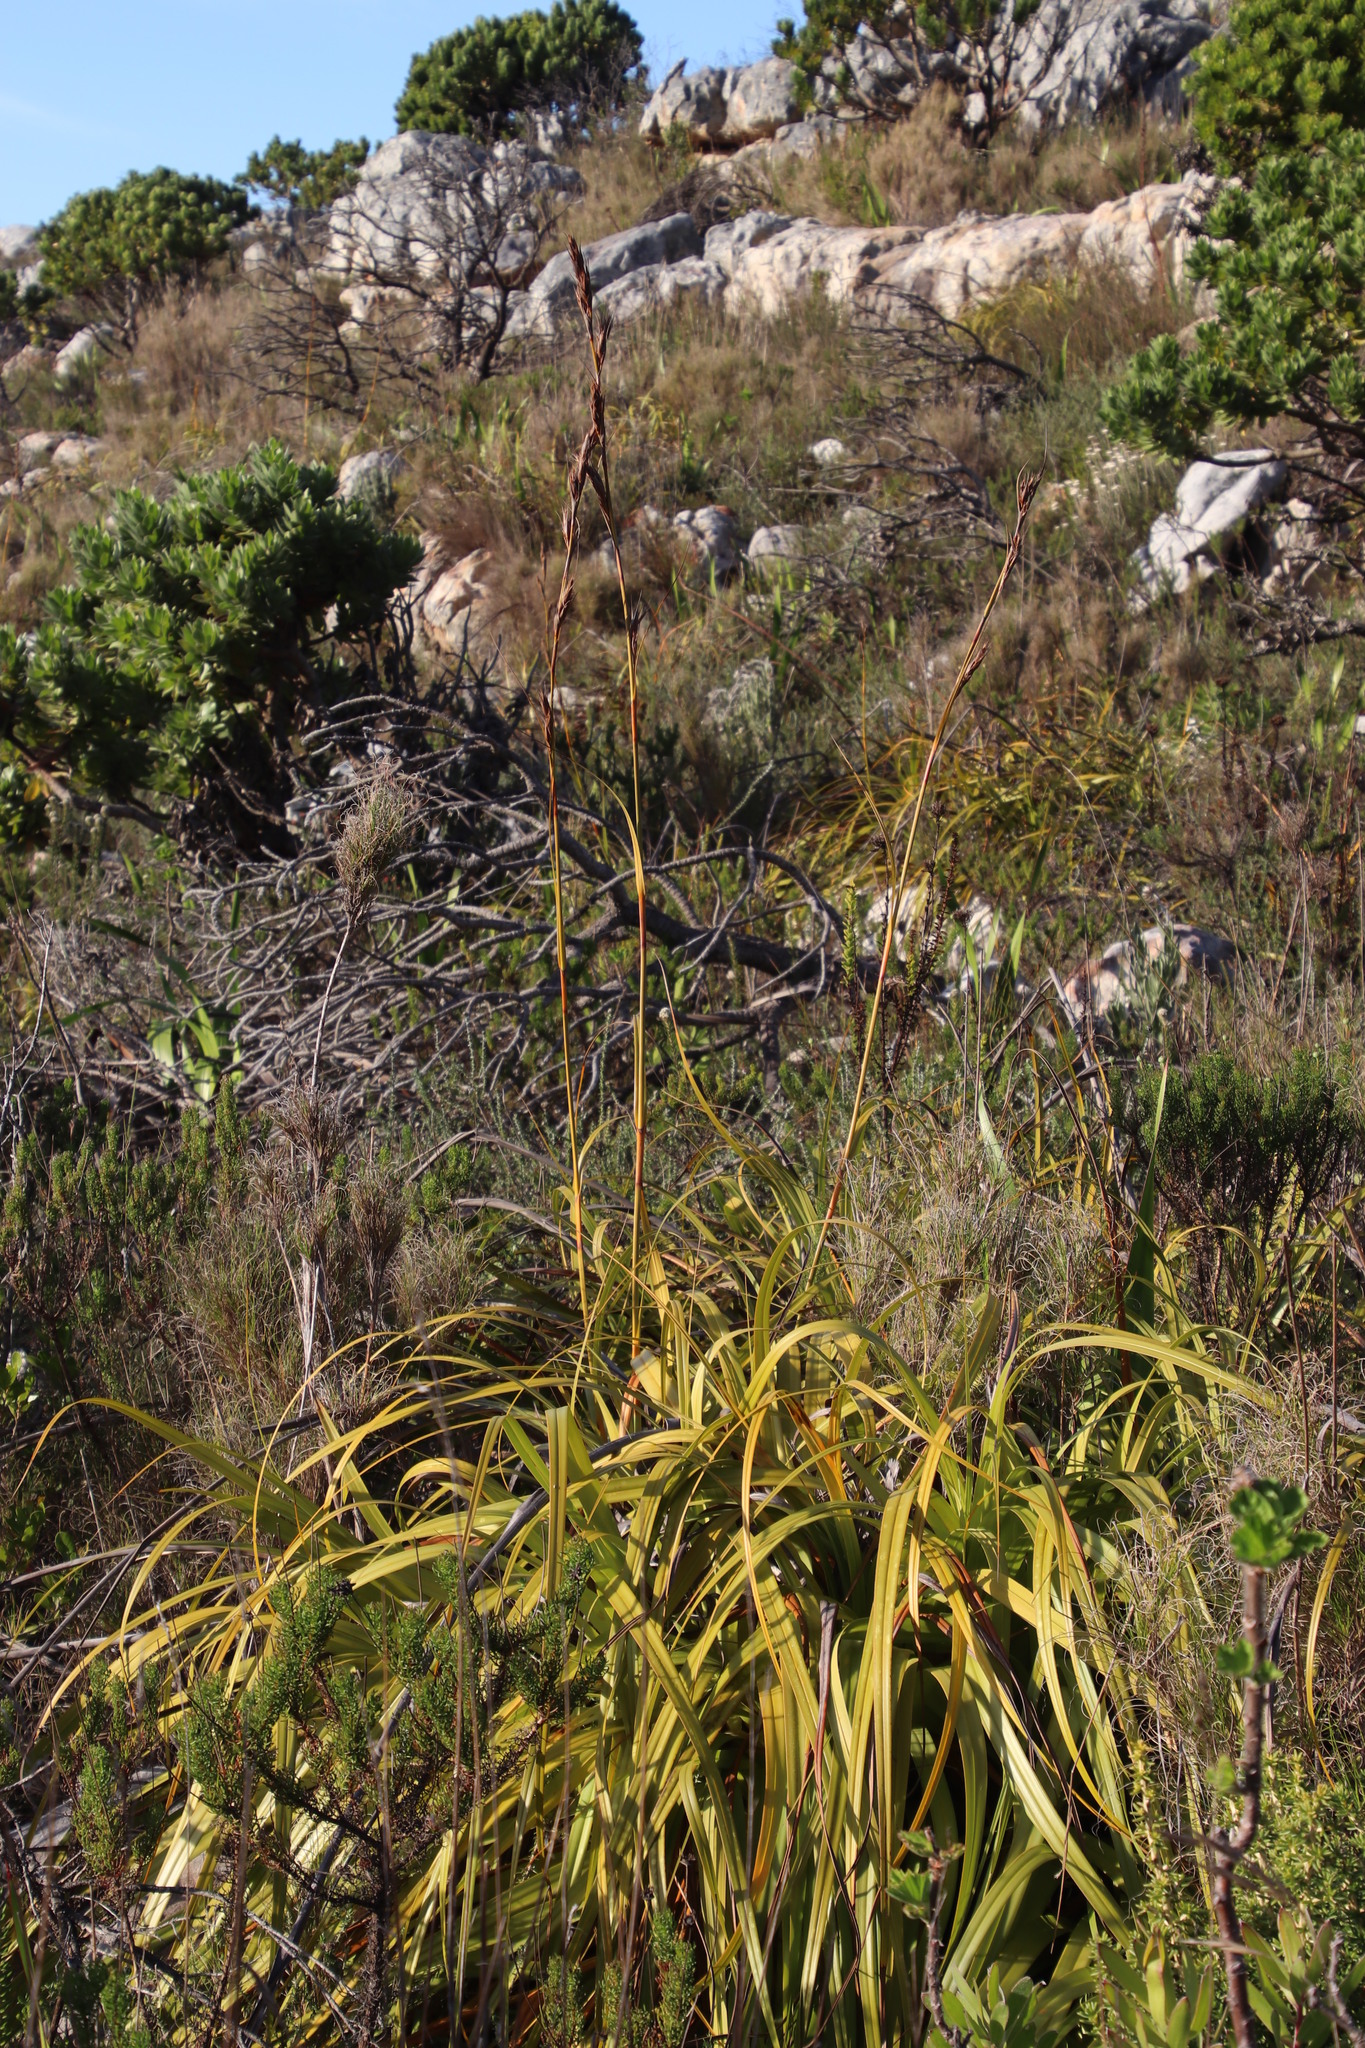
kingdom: Plantae
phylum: Tracheophyta
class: Liliopsida
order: Poales
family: Cyperaceae
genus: Tetraria
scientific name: Tetraria thermalis
